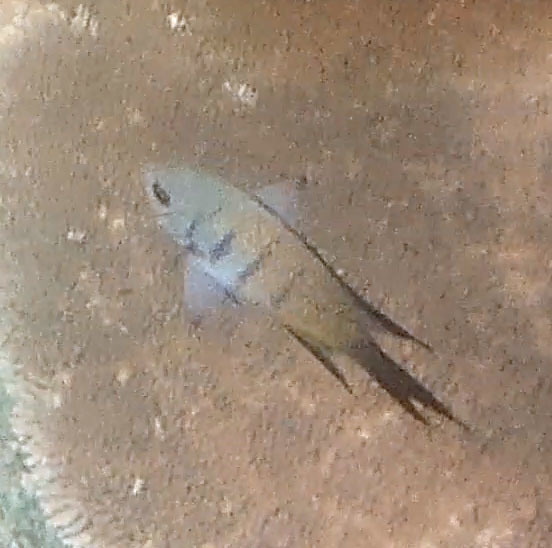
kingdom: Animalia
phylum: Chordata
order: Perciformes
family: Pomacentridae
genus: Abudefduf
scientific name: Abudefduf whitleyi
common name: Whitley's seargent
